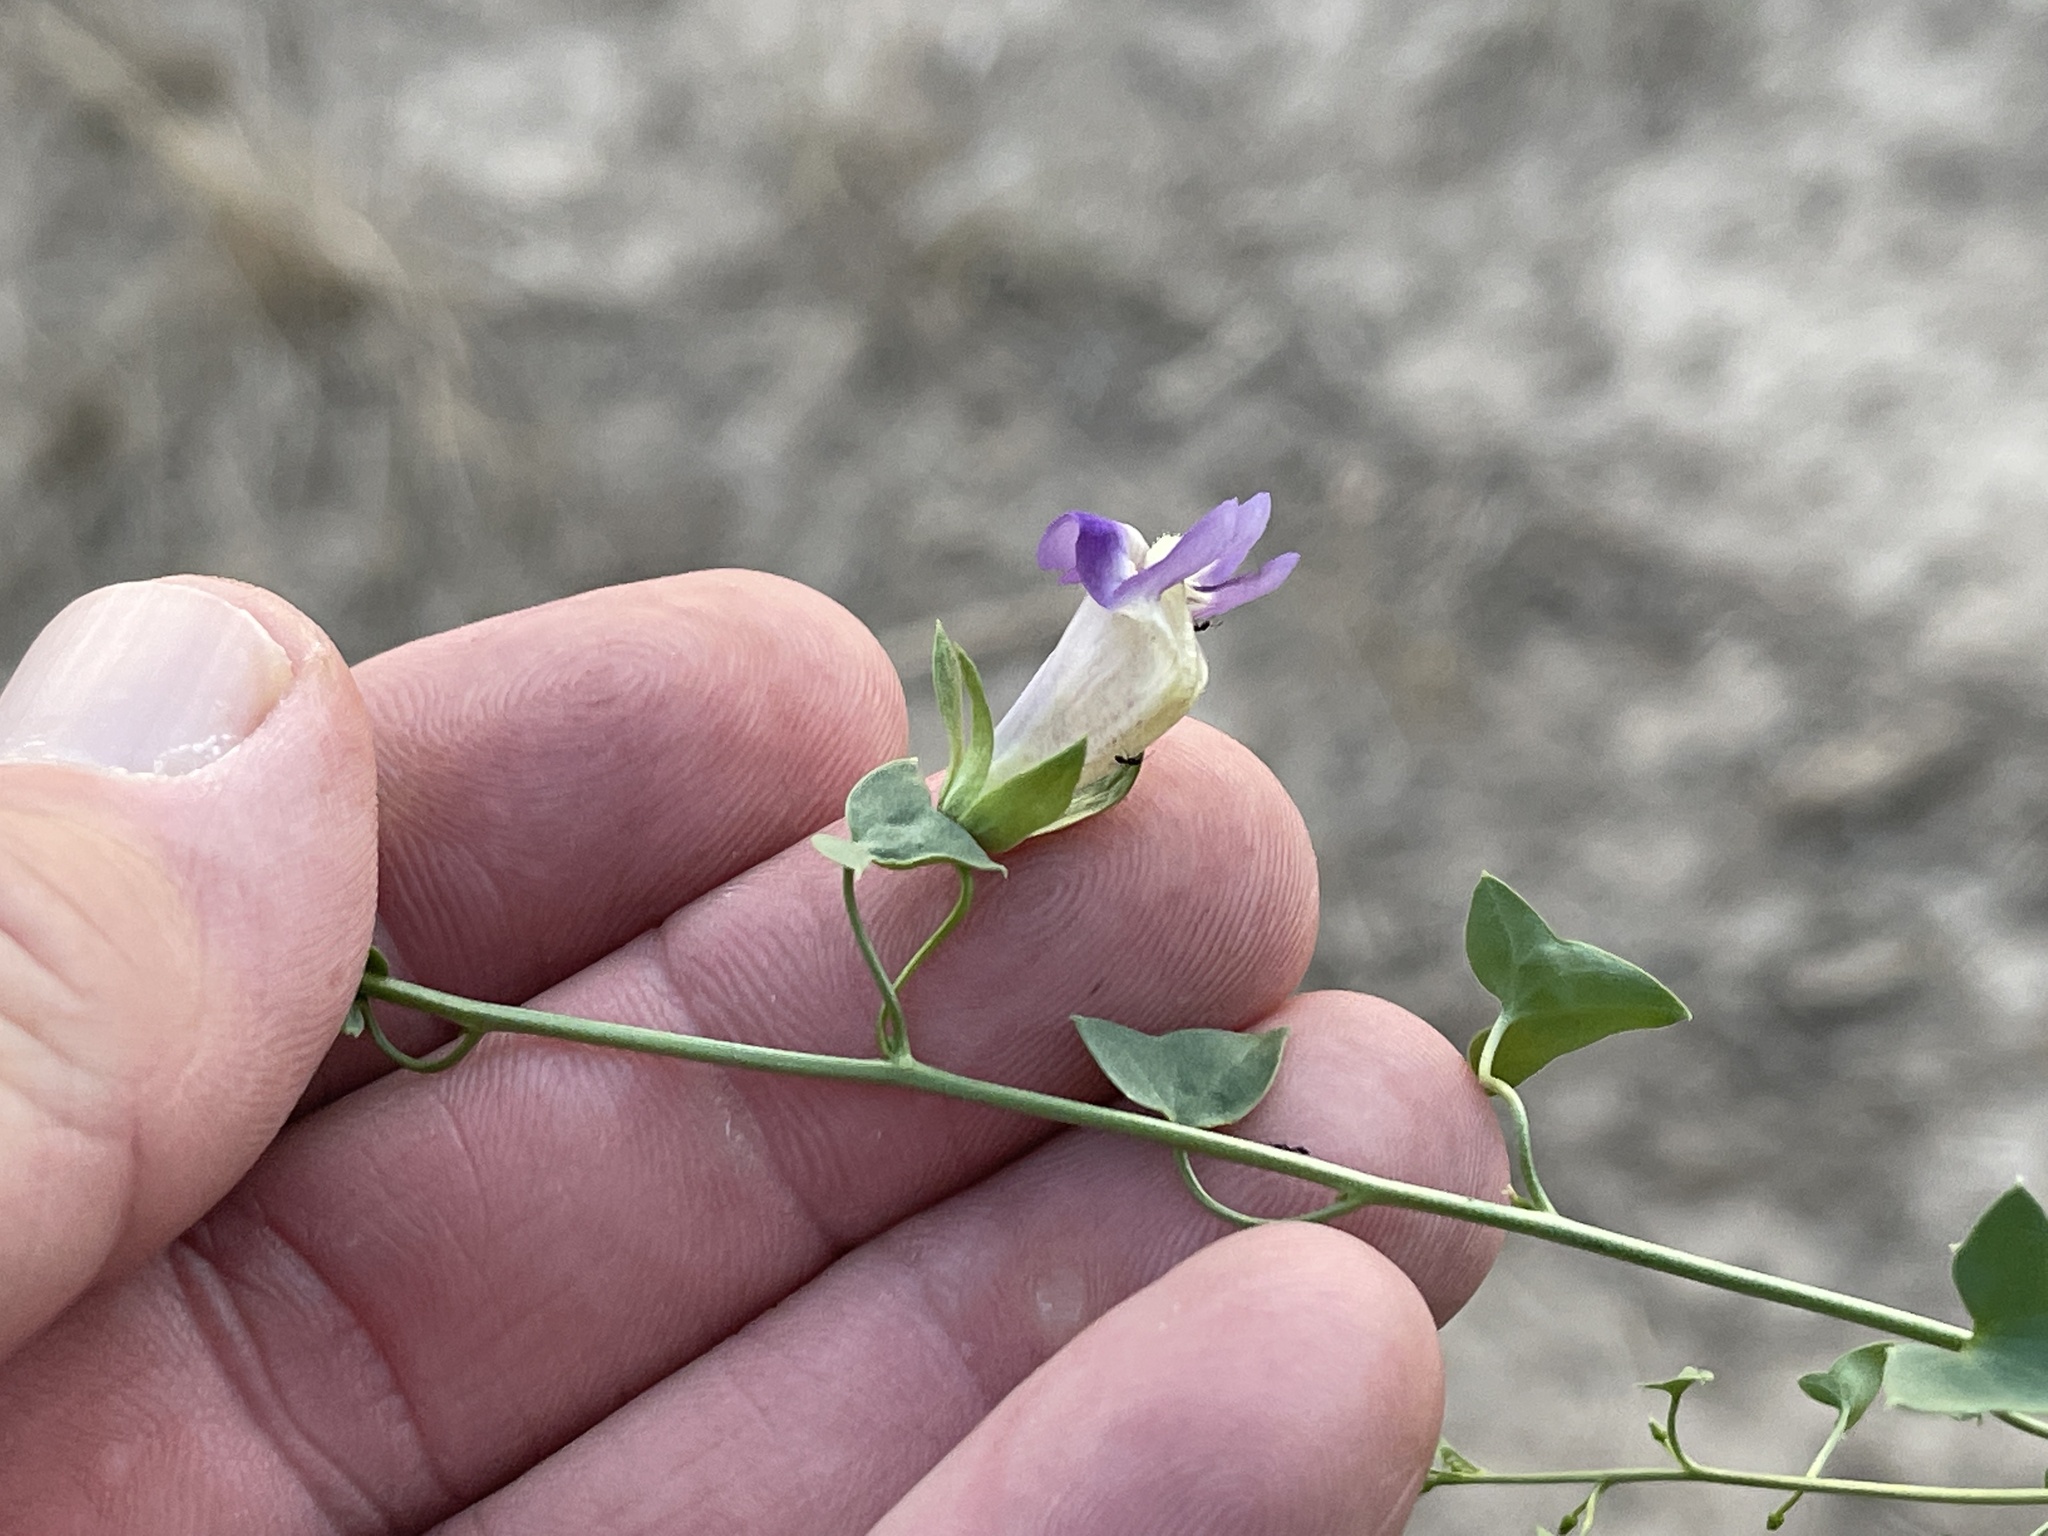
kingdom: Plantae
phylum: Tracheophyta
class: Magnoliopsida
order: Lamiales
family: Plantaginaceae
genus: Maurandella
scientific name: Maurandella antirrhiniflora
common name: Violet twining-snapdragon
